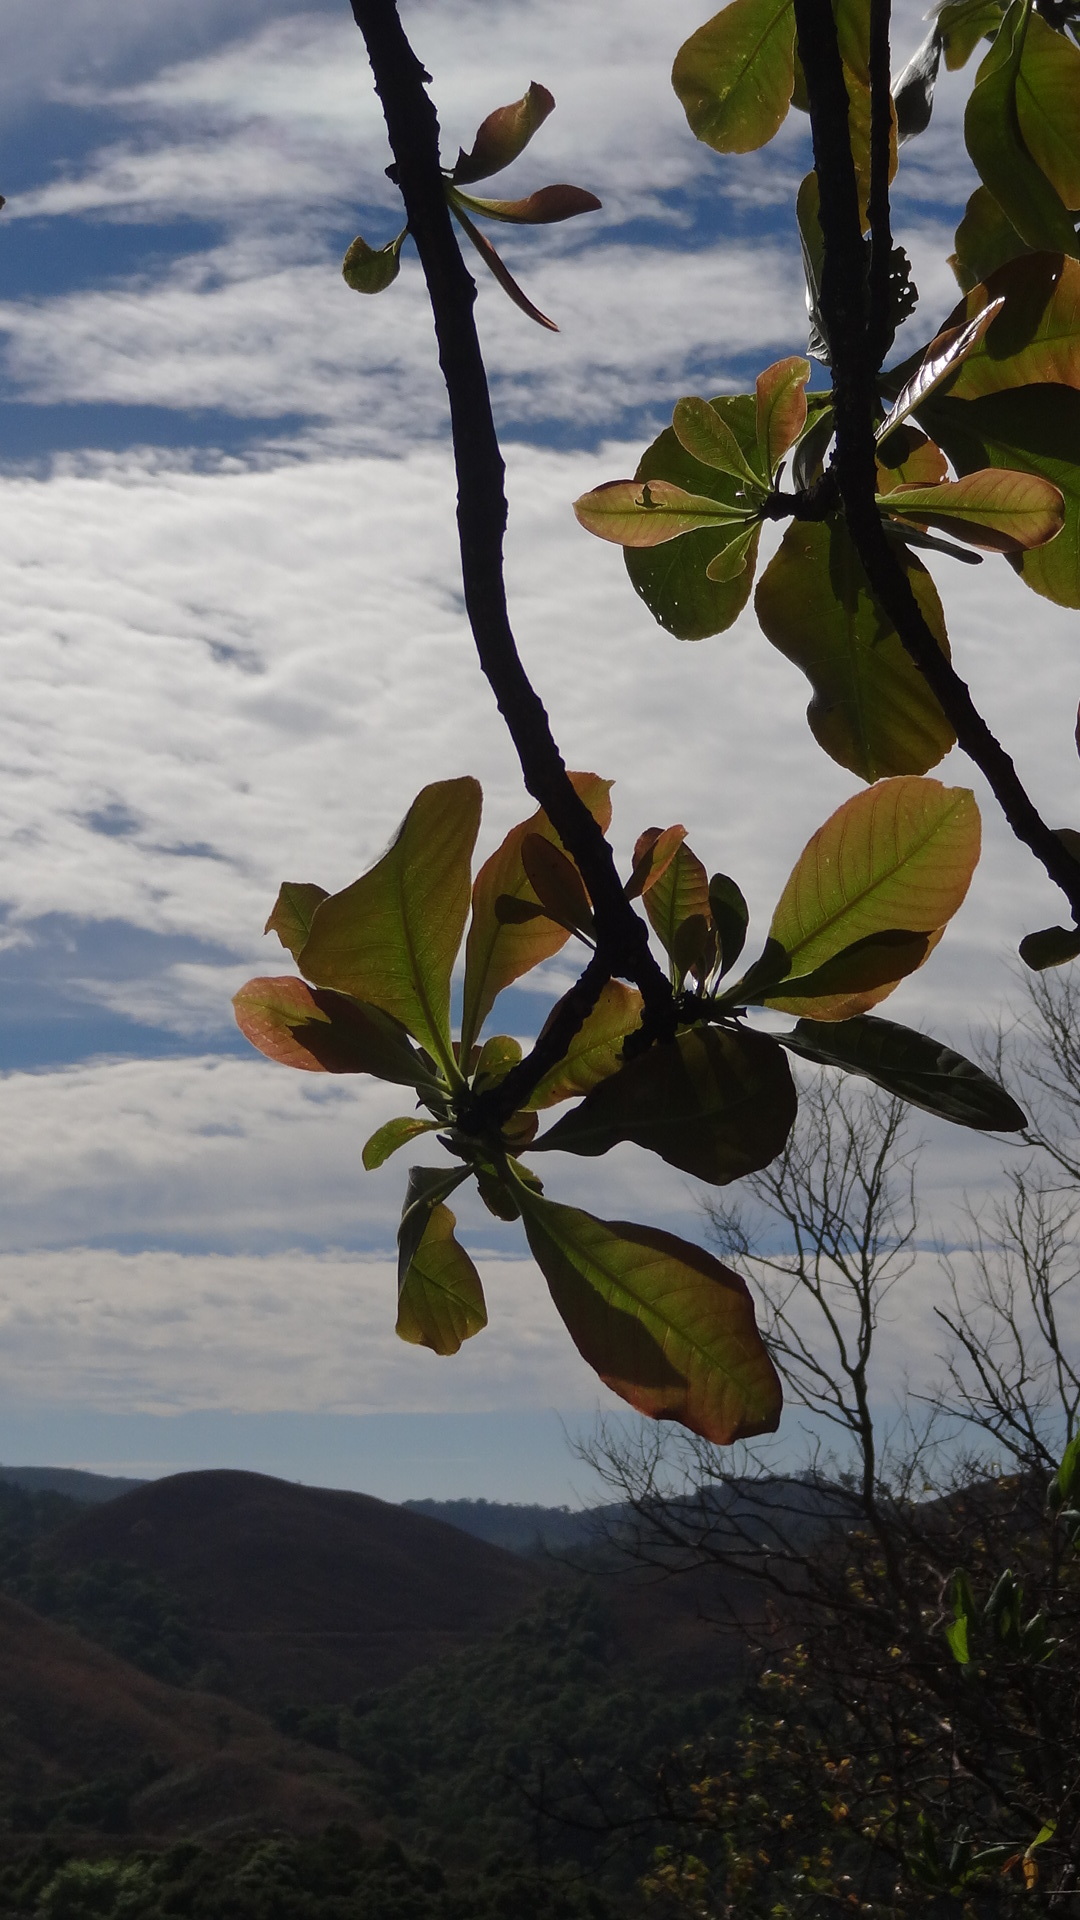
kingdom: Plantae
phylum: Tracheophyta
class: Magnoliopsida
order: Ericales
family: Lecythidaceae
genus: Careya
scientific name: Careya arborea
